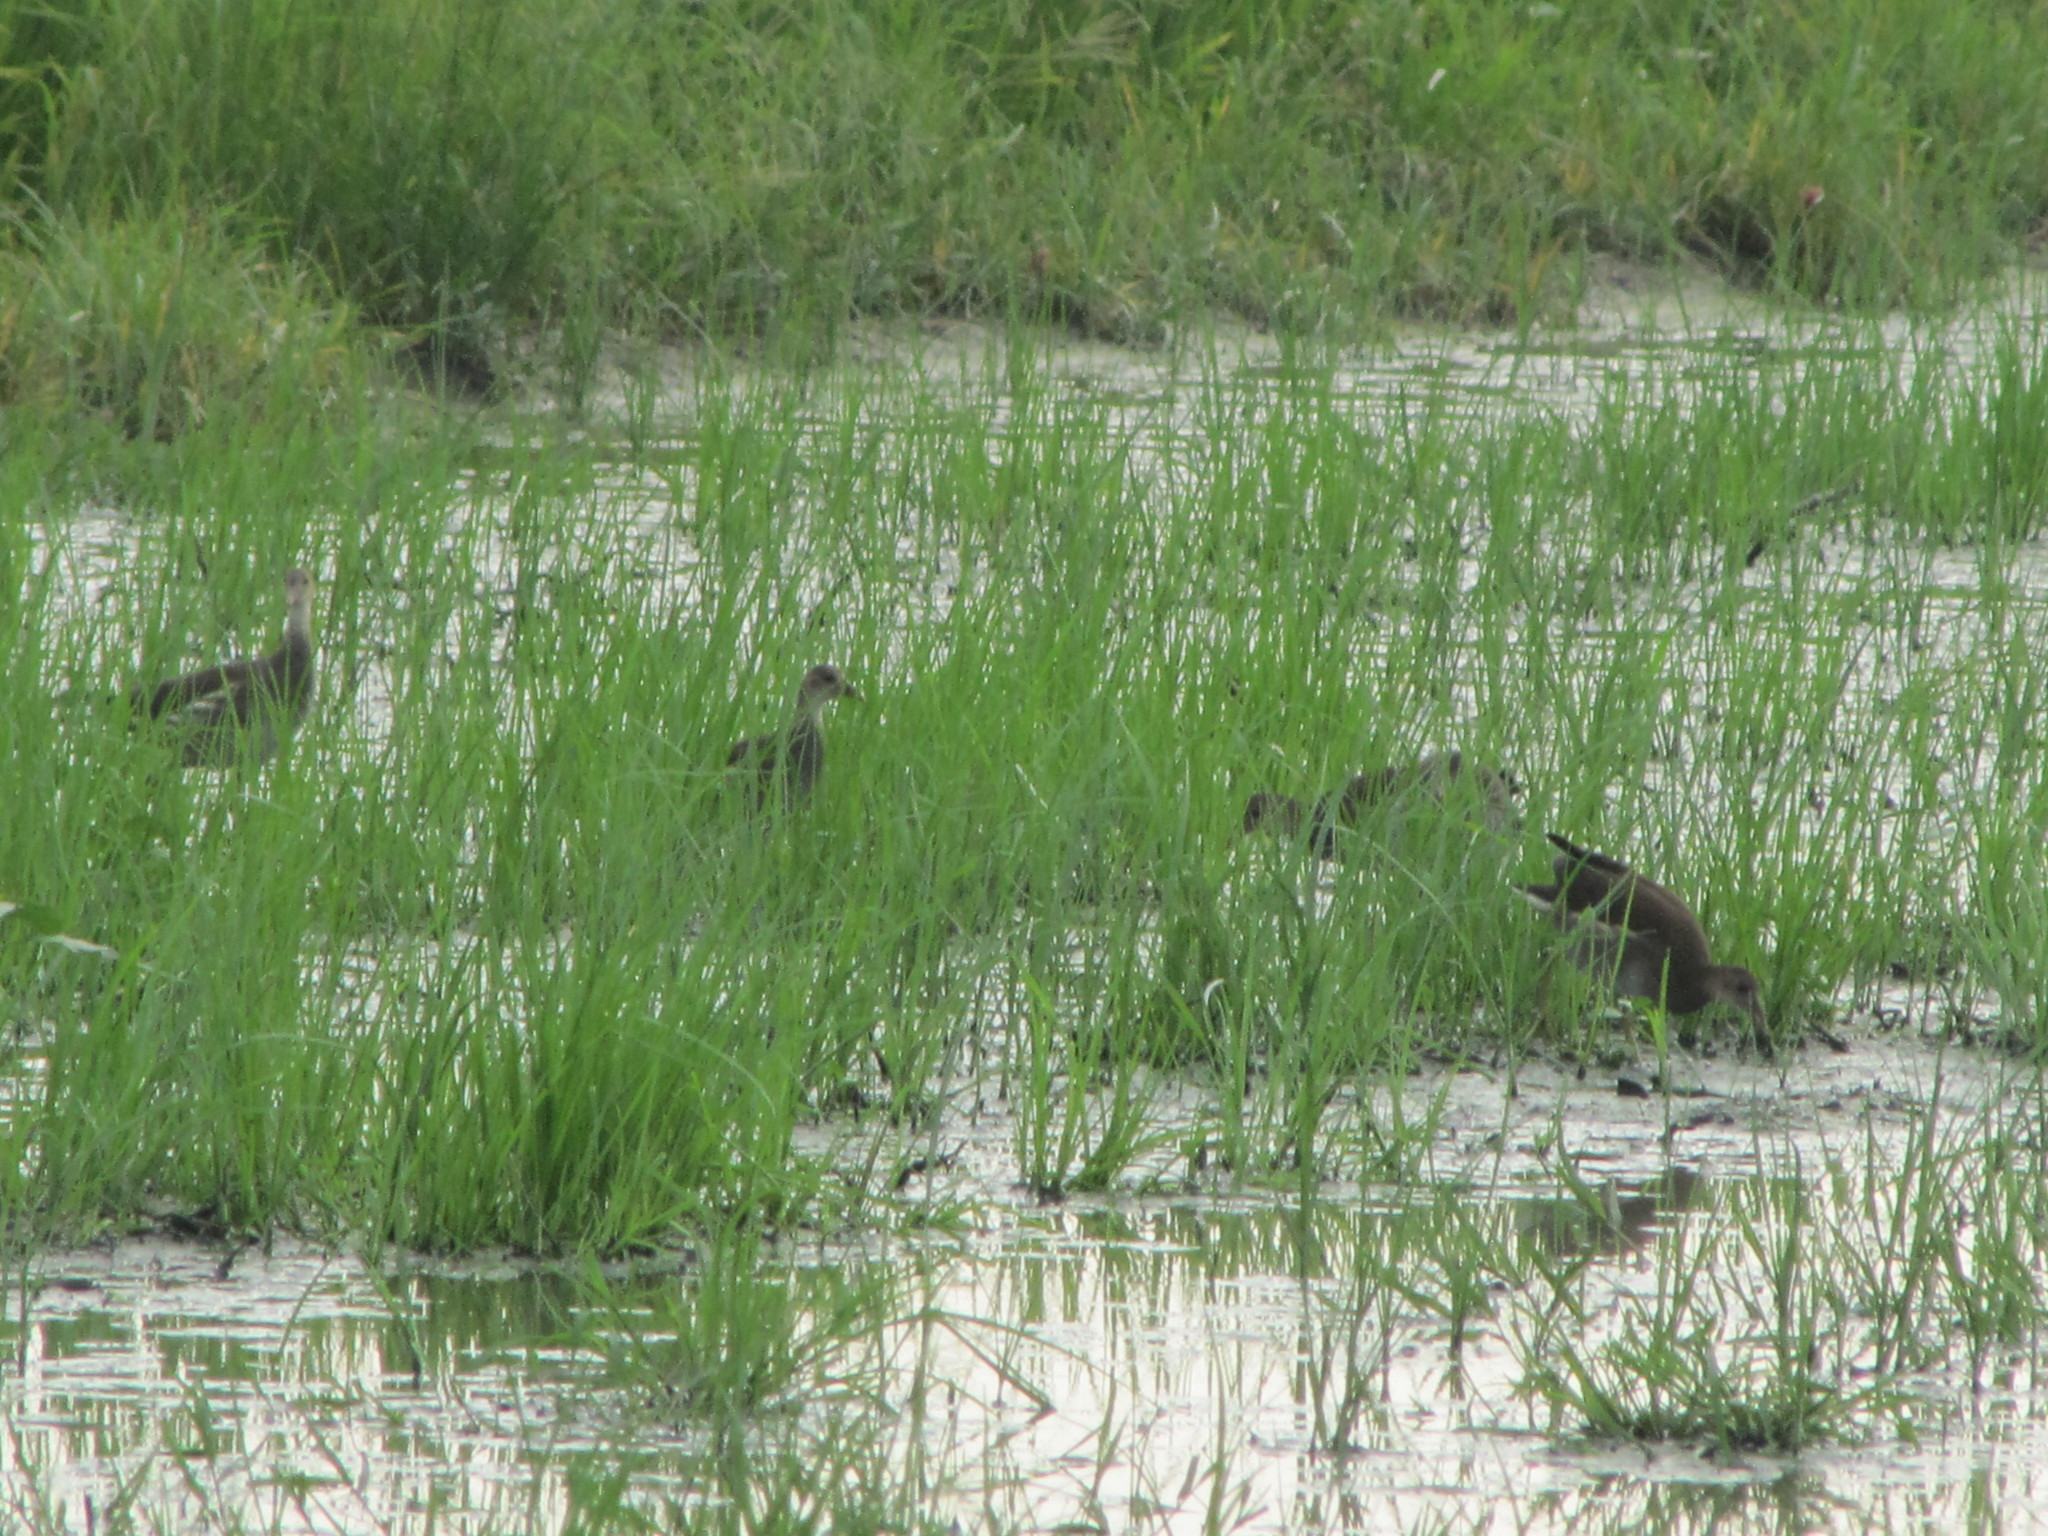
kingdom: Animalia
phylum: Chordata
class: Aves
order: Gruiformes
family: Rallidae
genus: Gallinula
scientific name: Gallinula chloropus
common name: Common moorhen
